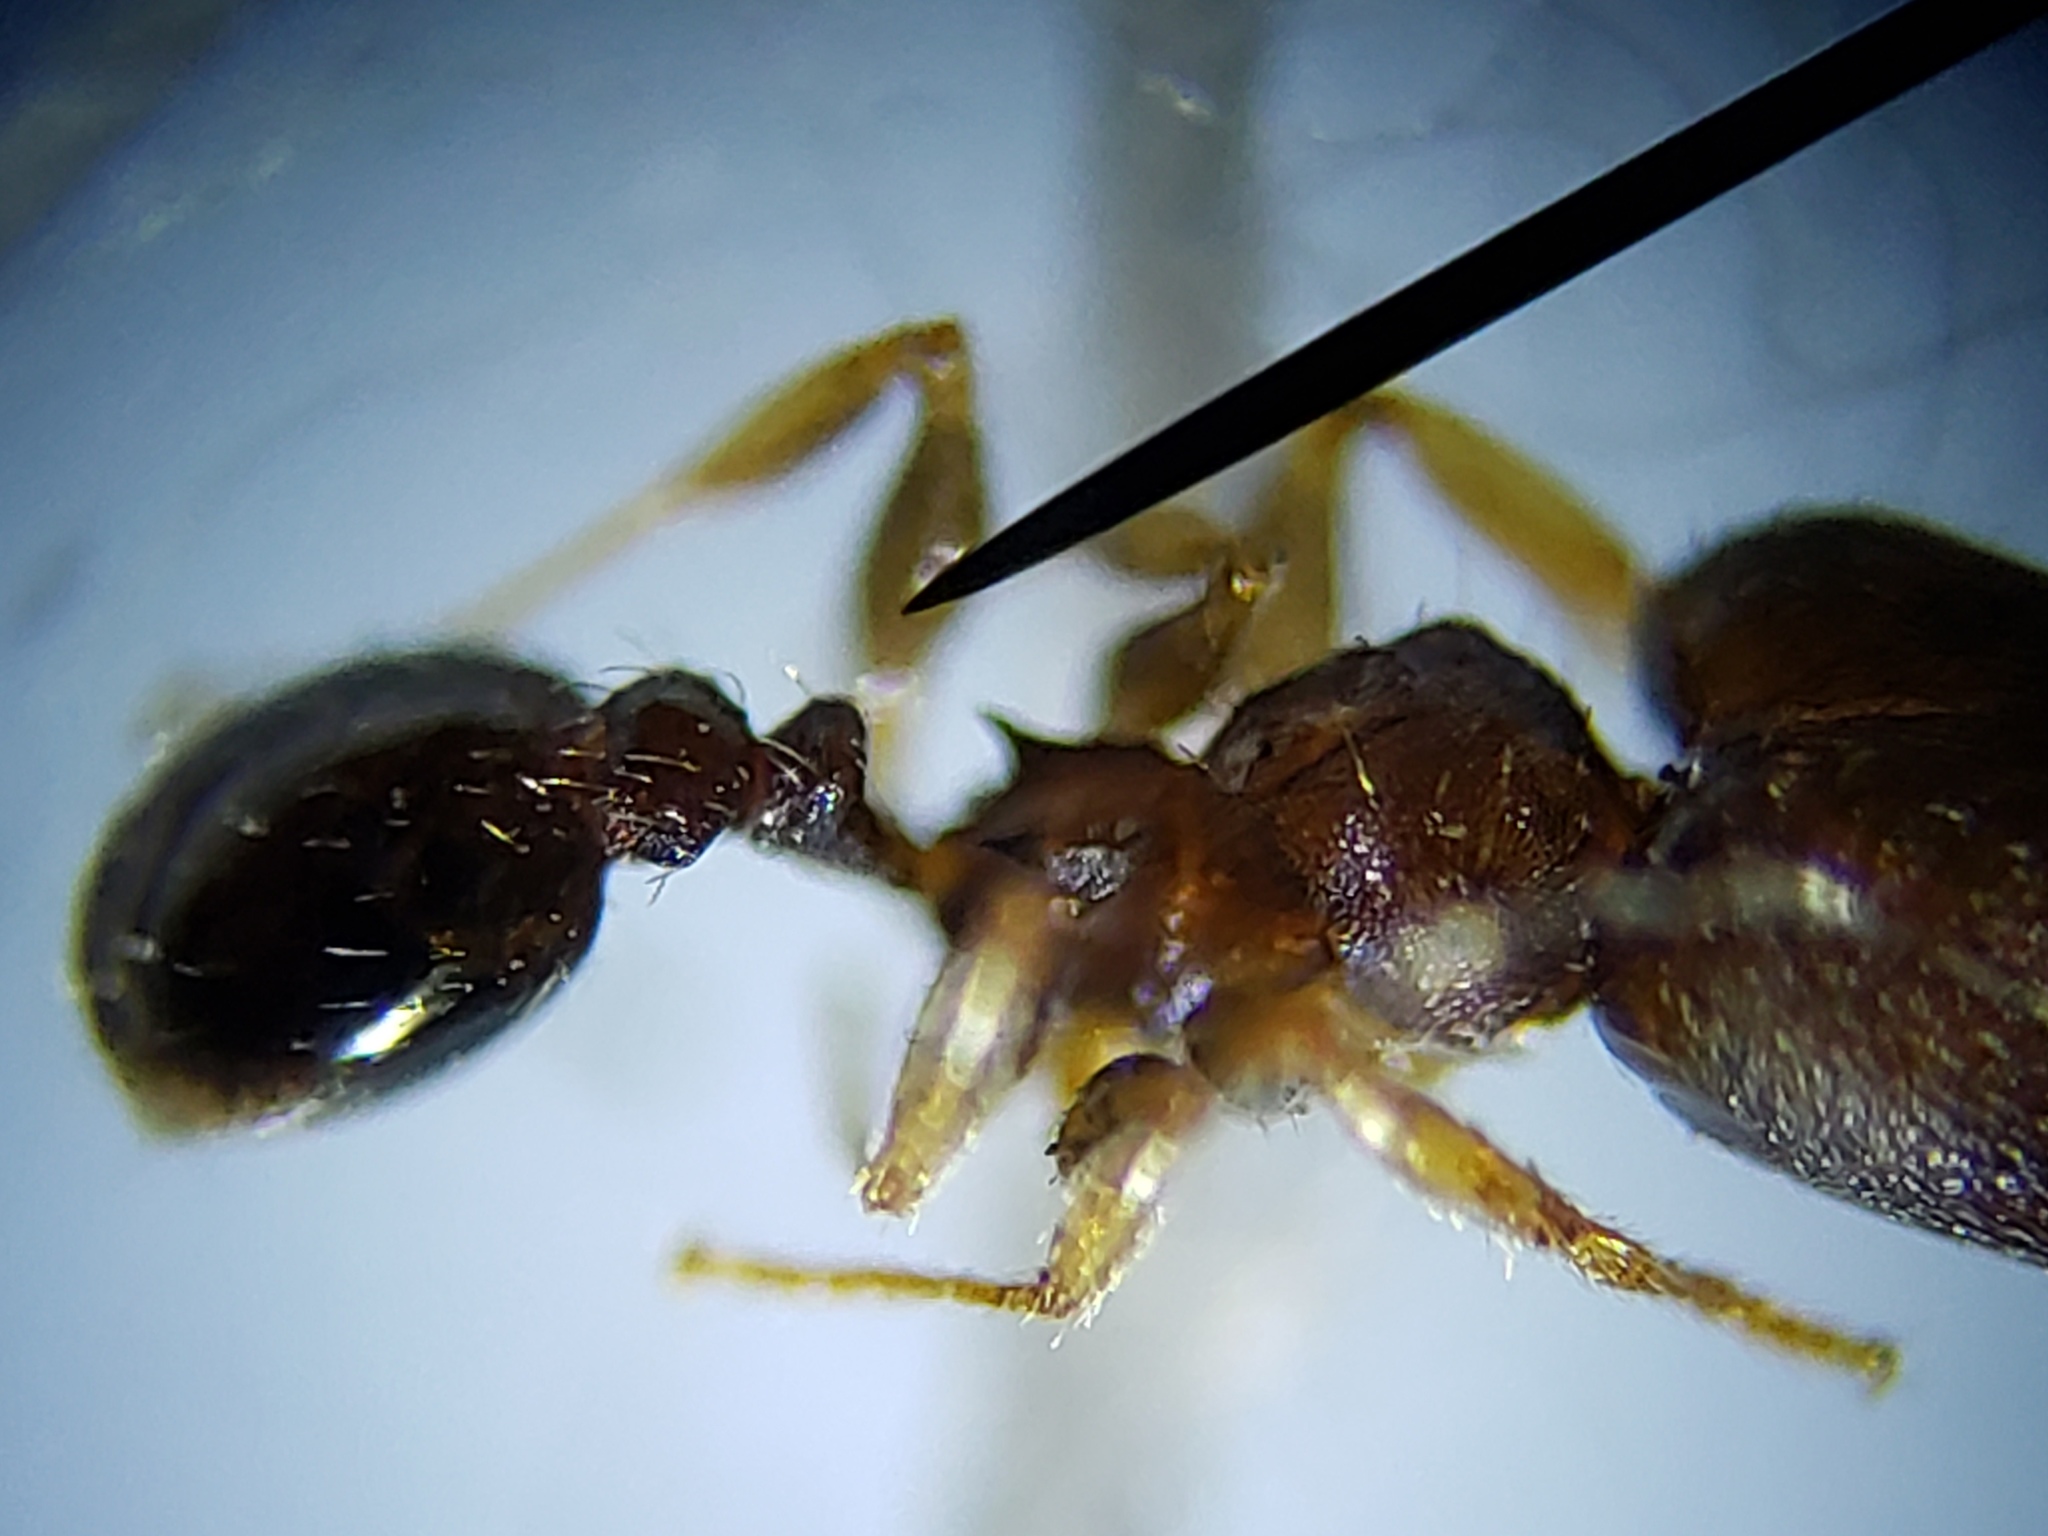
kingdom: Animalia
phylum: Arthropoda
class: Insecta
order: Hymenoptera
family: Formicidae
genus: Pheidole
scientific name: Pheidole metallescens
